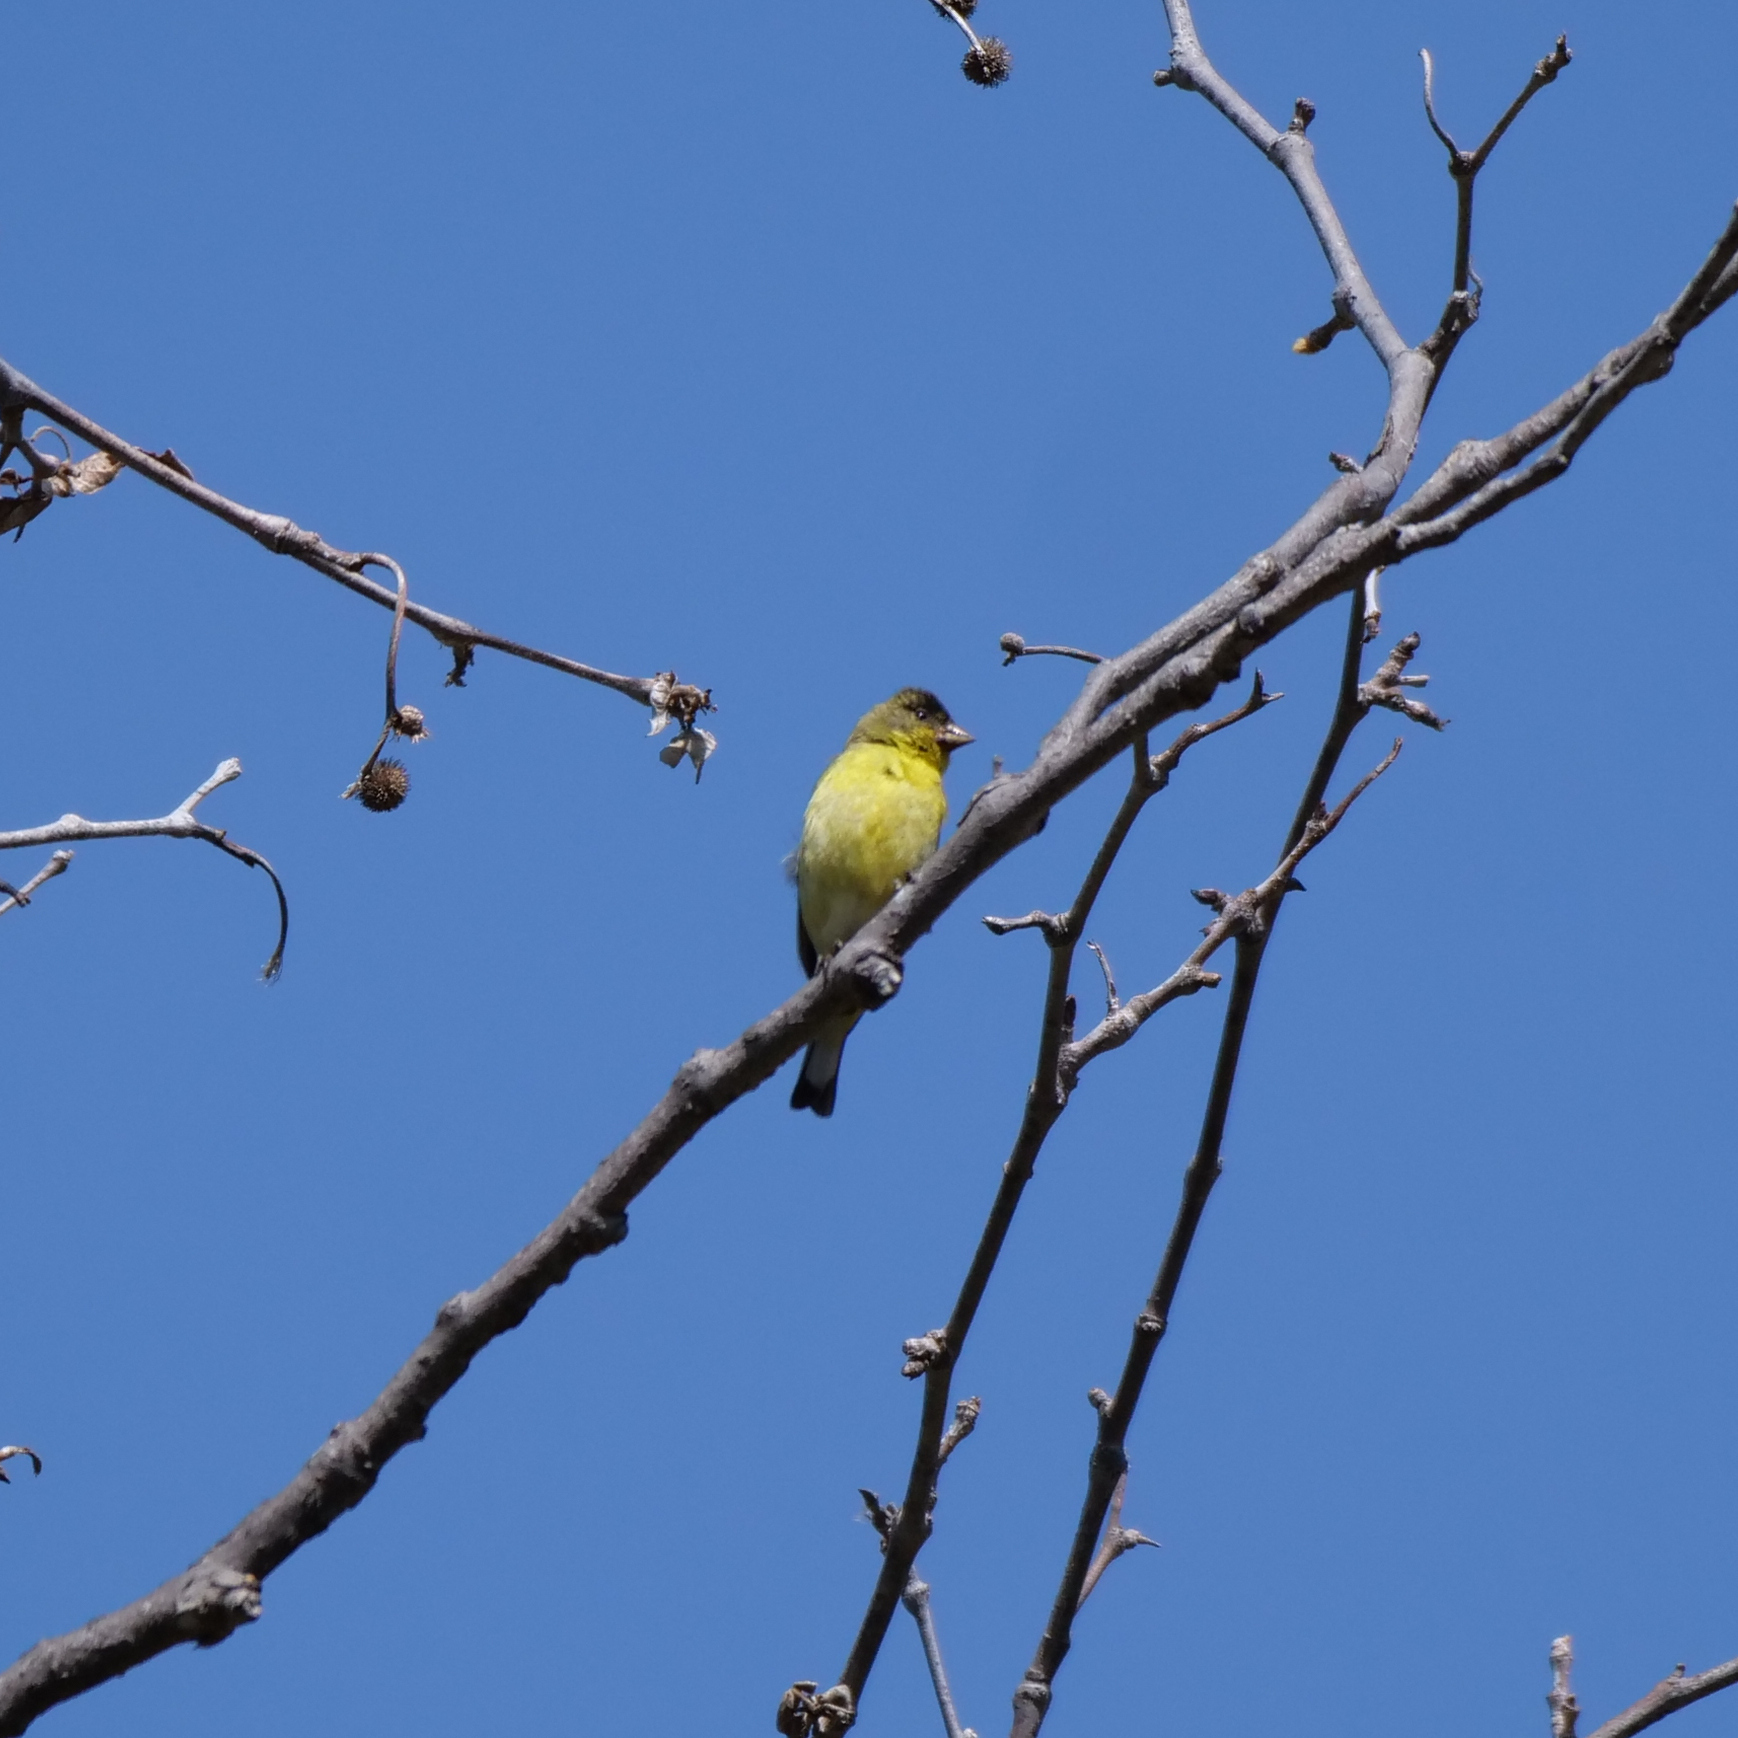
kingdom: Animalia
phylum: Chordata
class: Aves
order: Passeriformes
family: Fringillidae
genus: Spinus
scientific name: Spinus psaltria
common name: Lesser goldfinch
